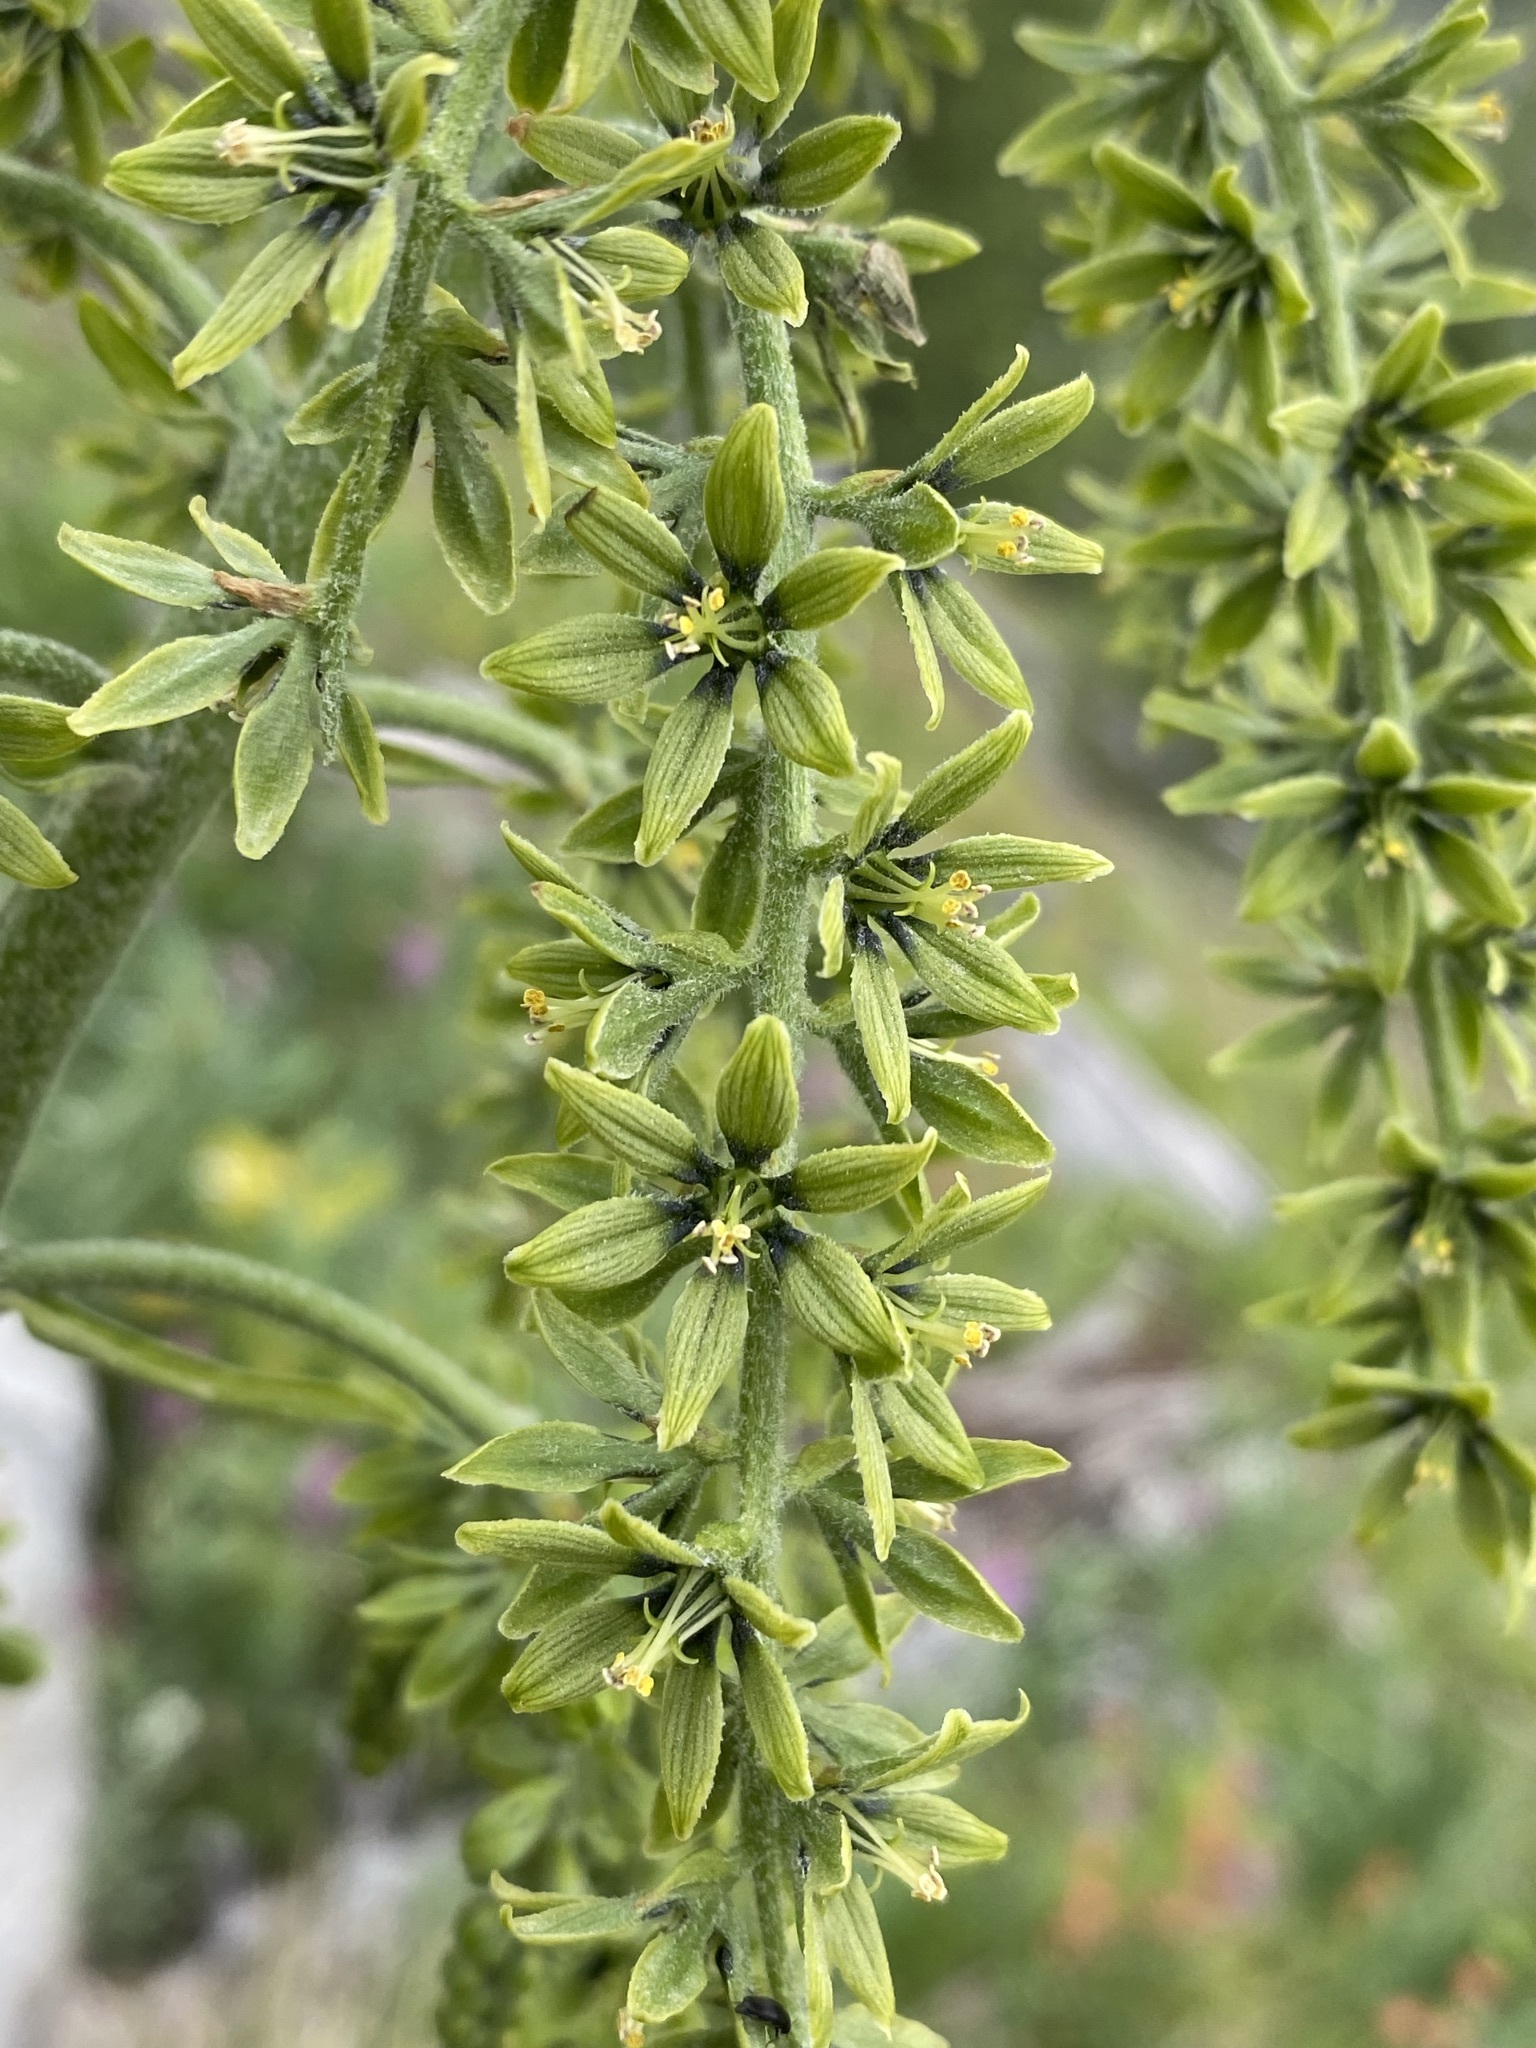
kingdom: Plantae
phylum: Tracheophyta
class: Liliopsida
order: Liliales
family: Melanthiaceae
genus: Veratrum
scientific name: Veratrum viride
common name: American false hellebore
